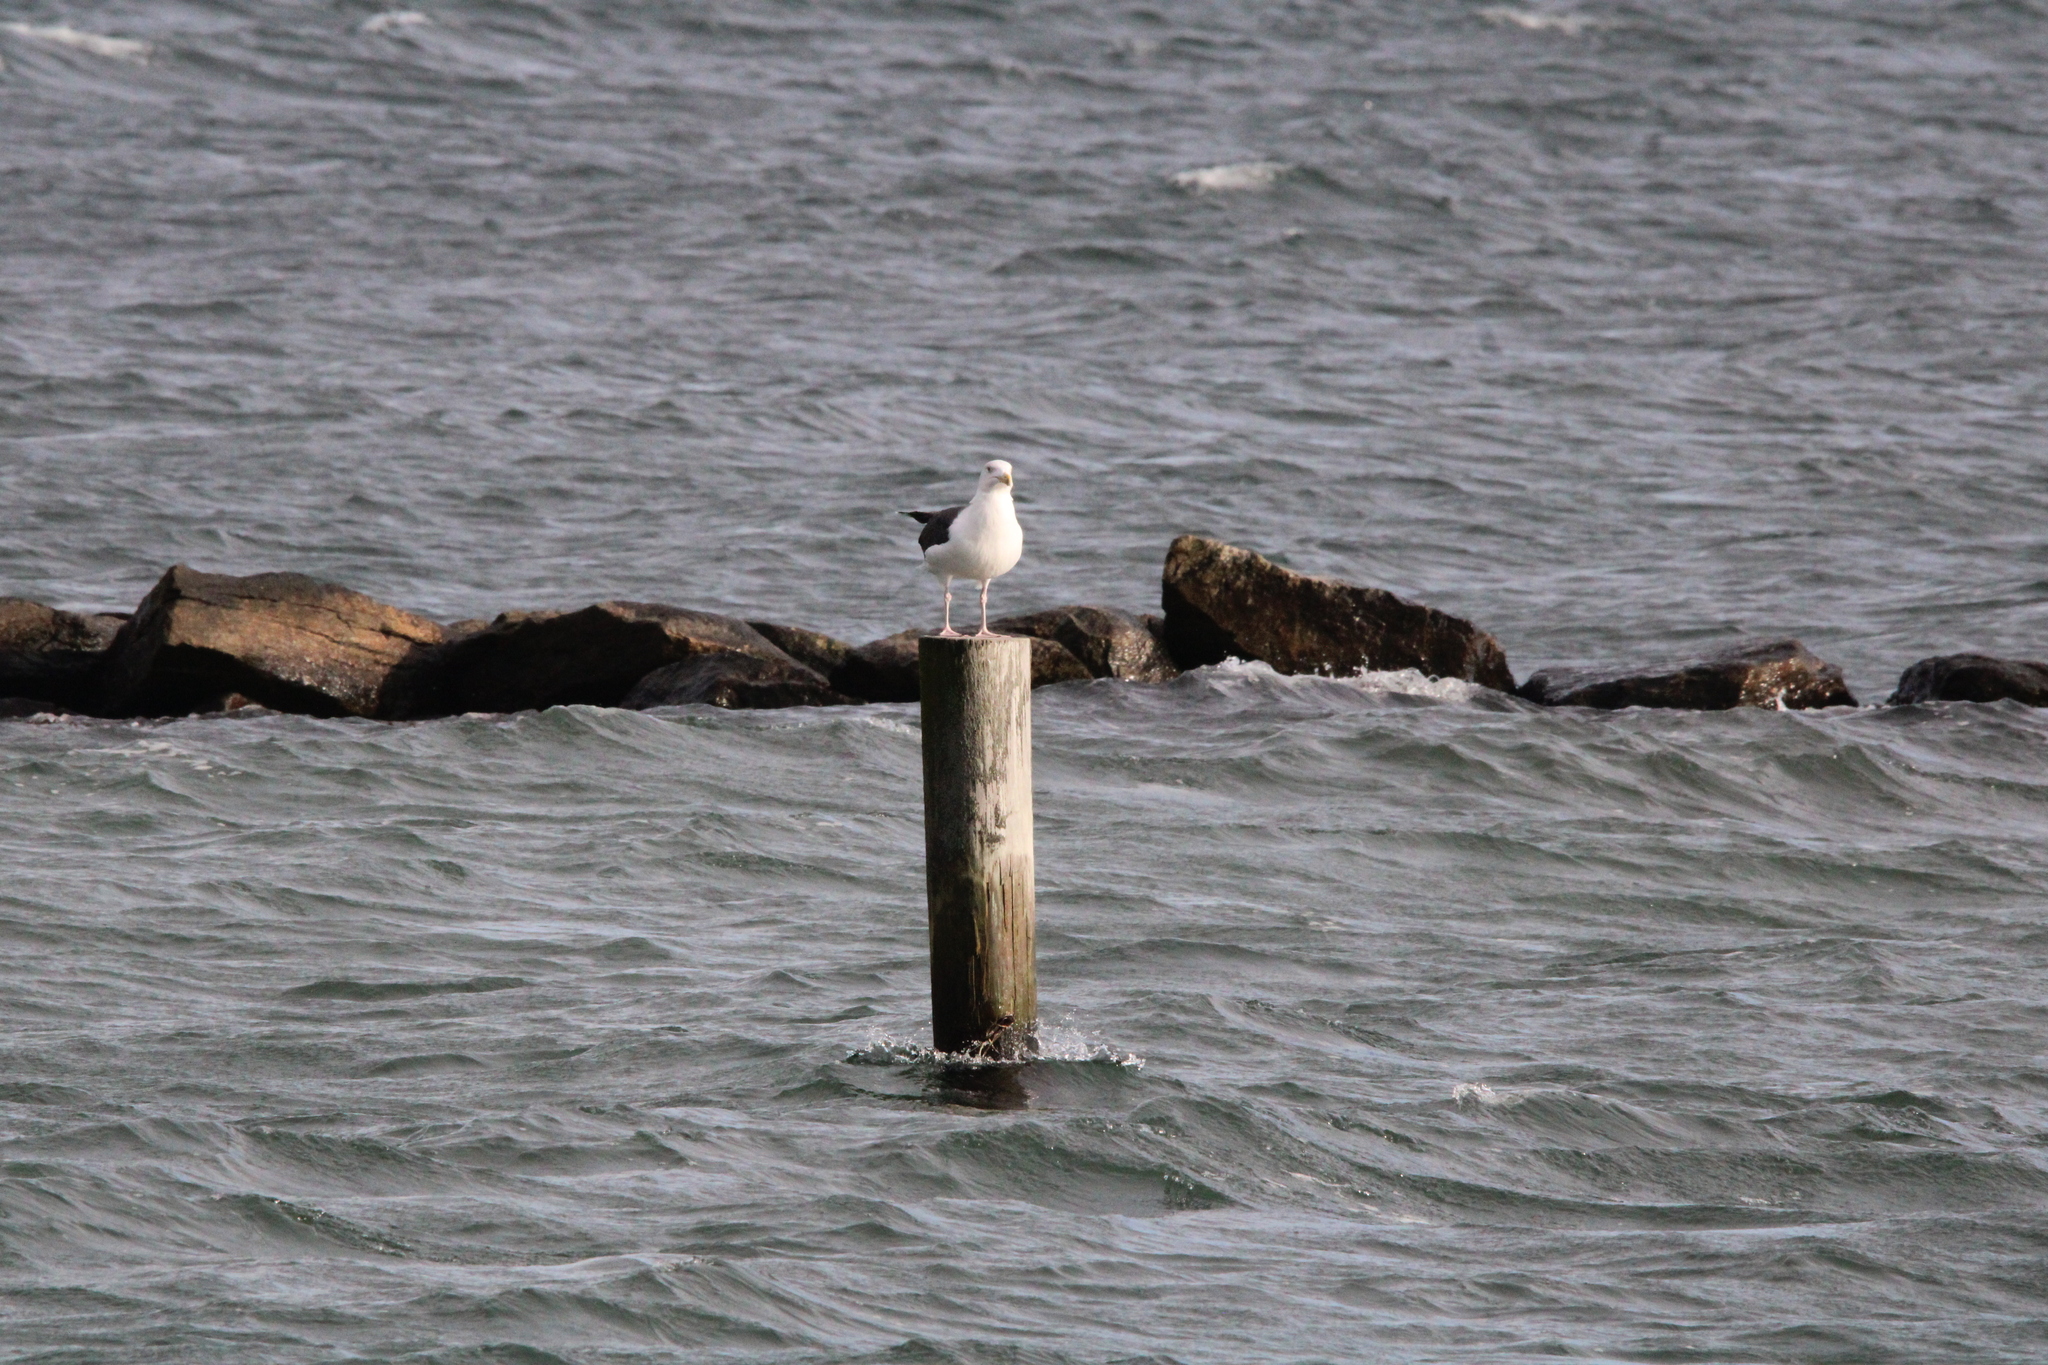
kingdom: Animalia
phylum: Chordata
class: Aves
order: Charadriiformes
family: Laridae
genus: Larus
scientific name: Larus marinus
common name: Great black-backed gull
